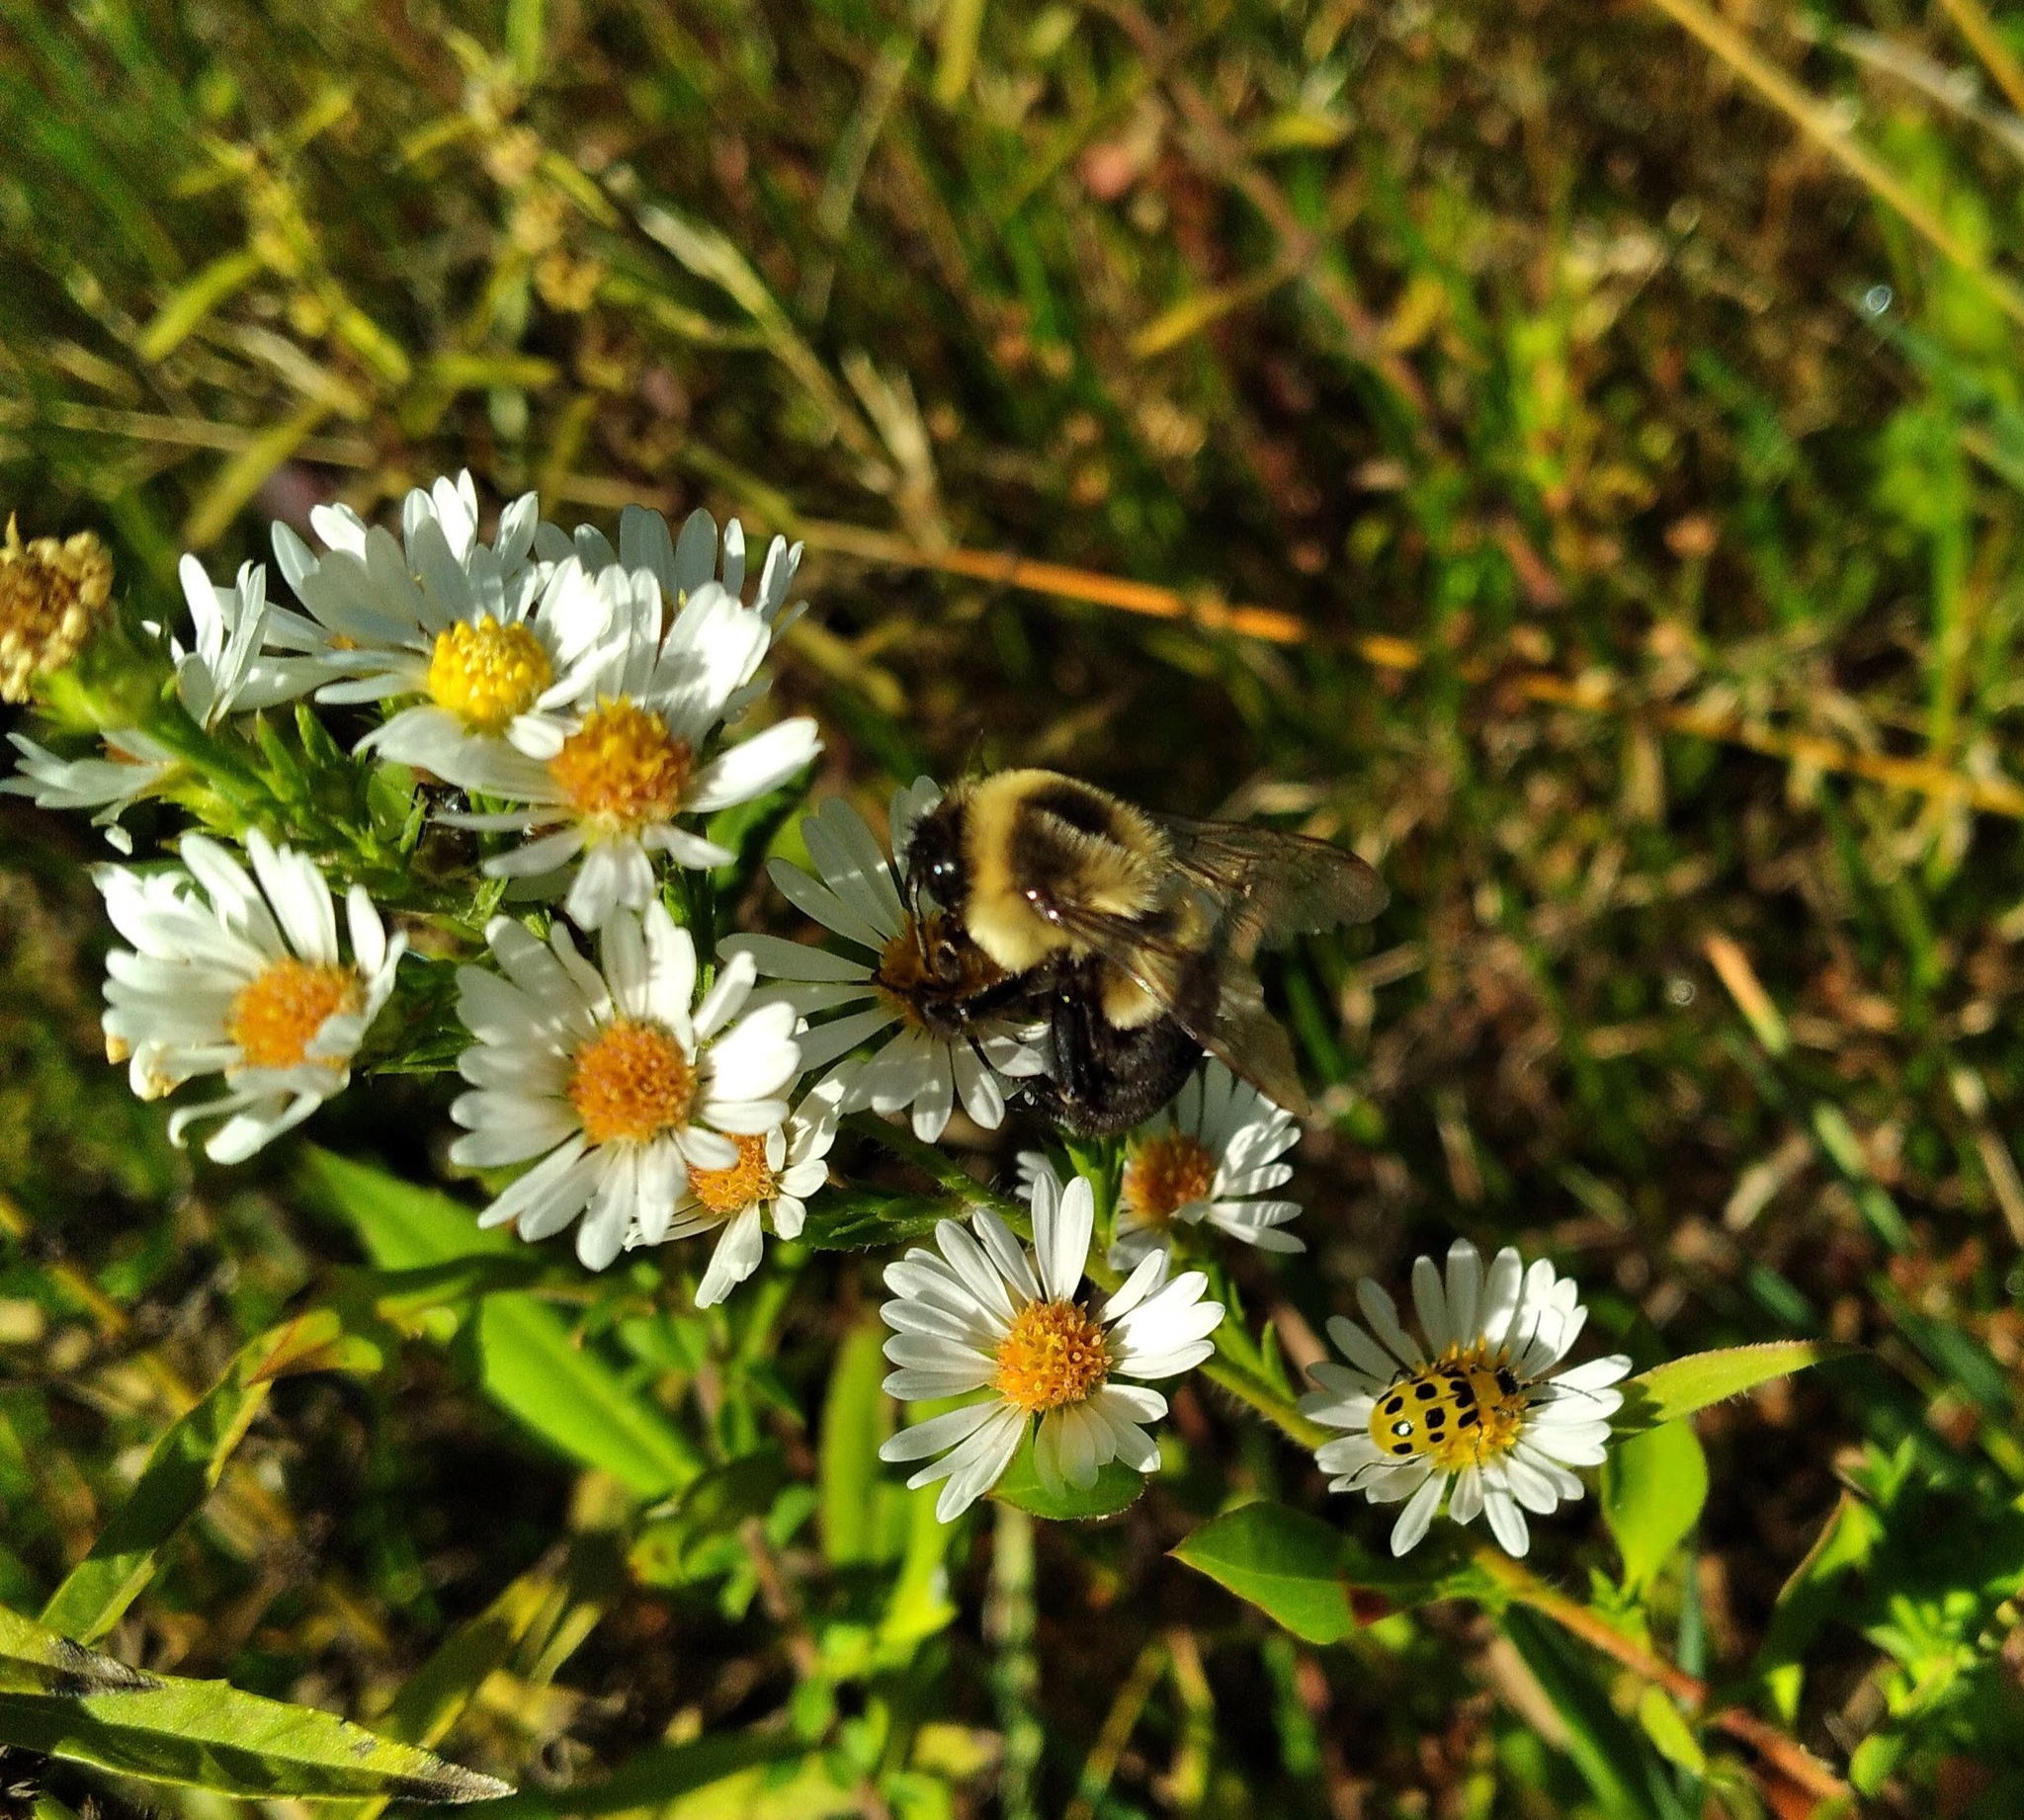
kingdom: Animalia
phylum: Arthropoda
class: Insecta
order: Hymenoptera
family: Apidae
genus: Bombus
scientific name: Bombus impatiens
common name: Common eastern bumble bee
